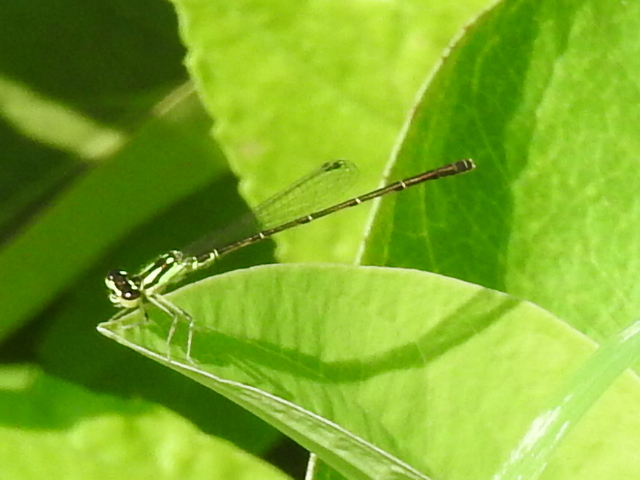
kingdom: Animalia
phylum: Arthropoda
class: Insecta
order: Odonata
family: Coenagrionidae
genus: Ischnura
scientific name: Ischnura posita
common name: Fragile forktail
